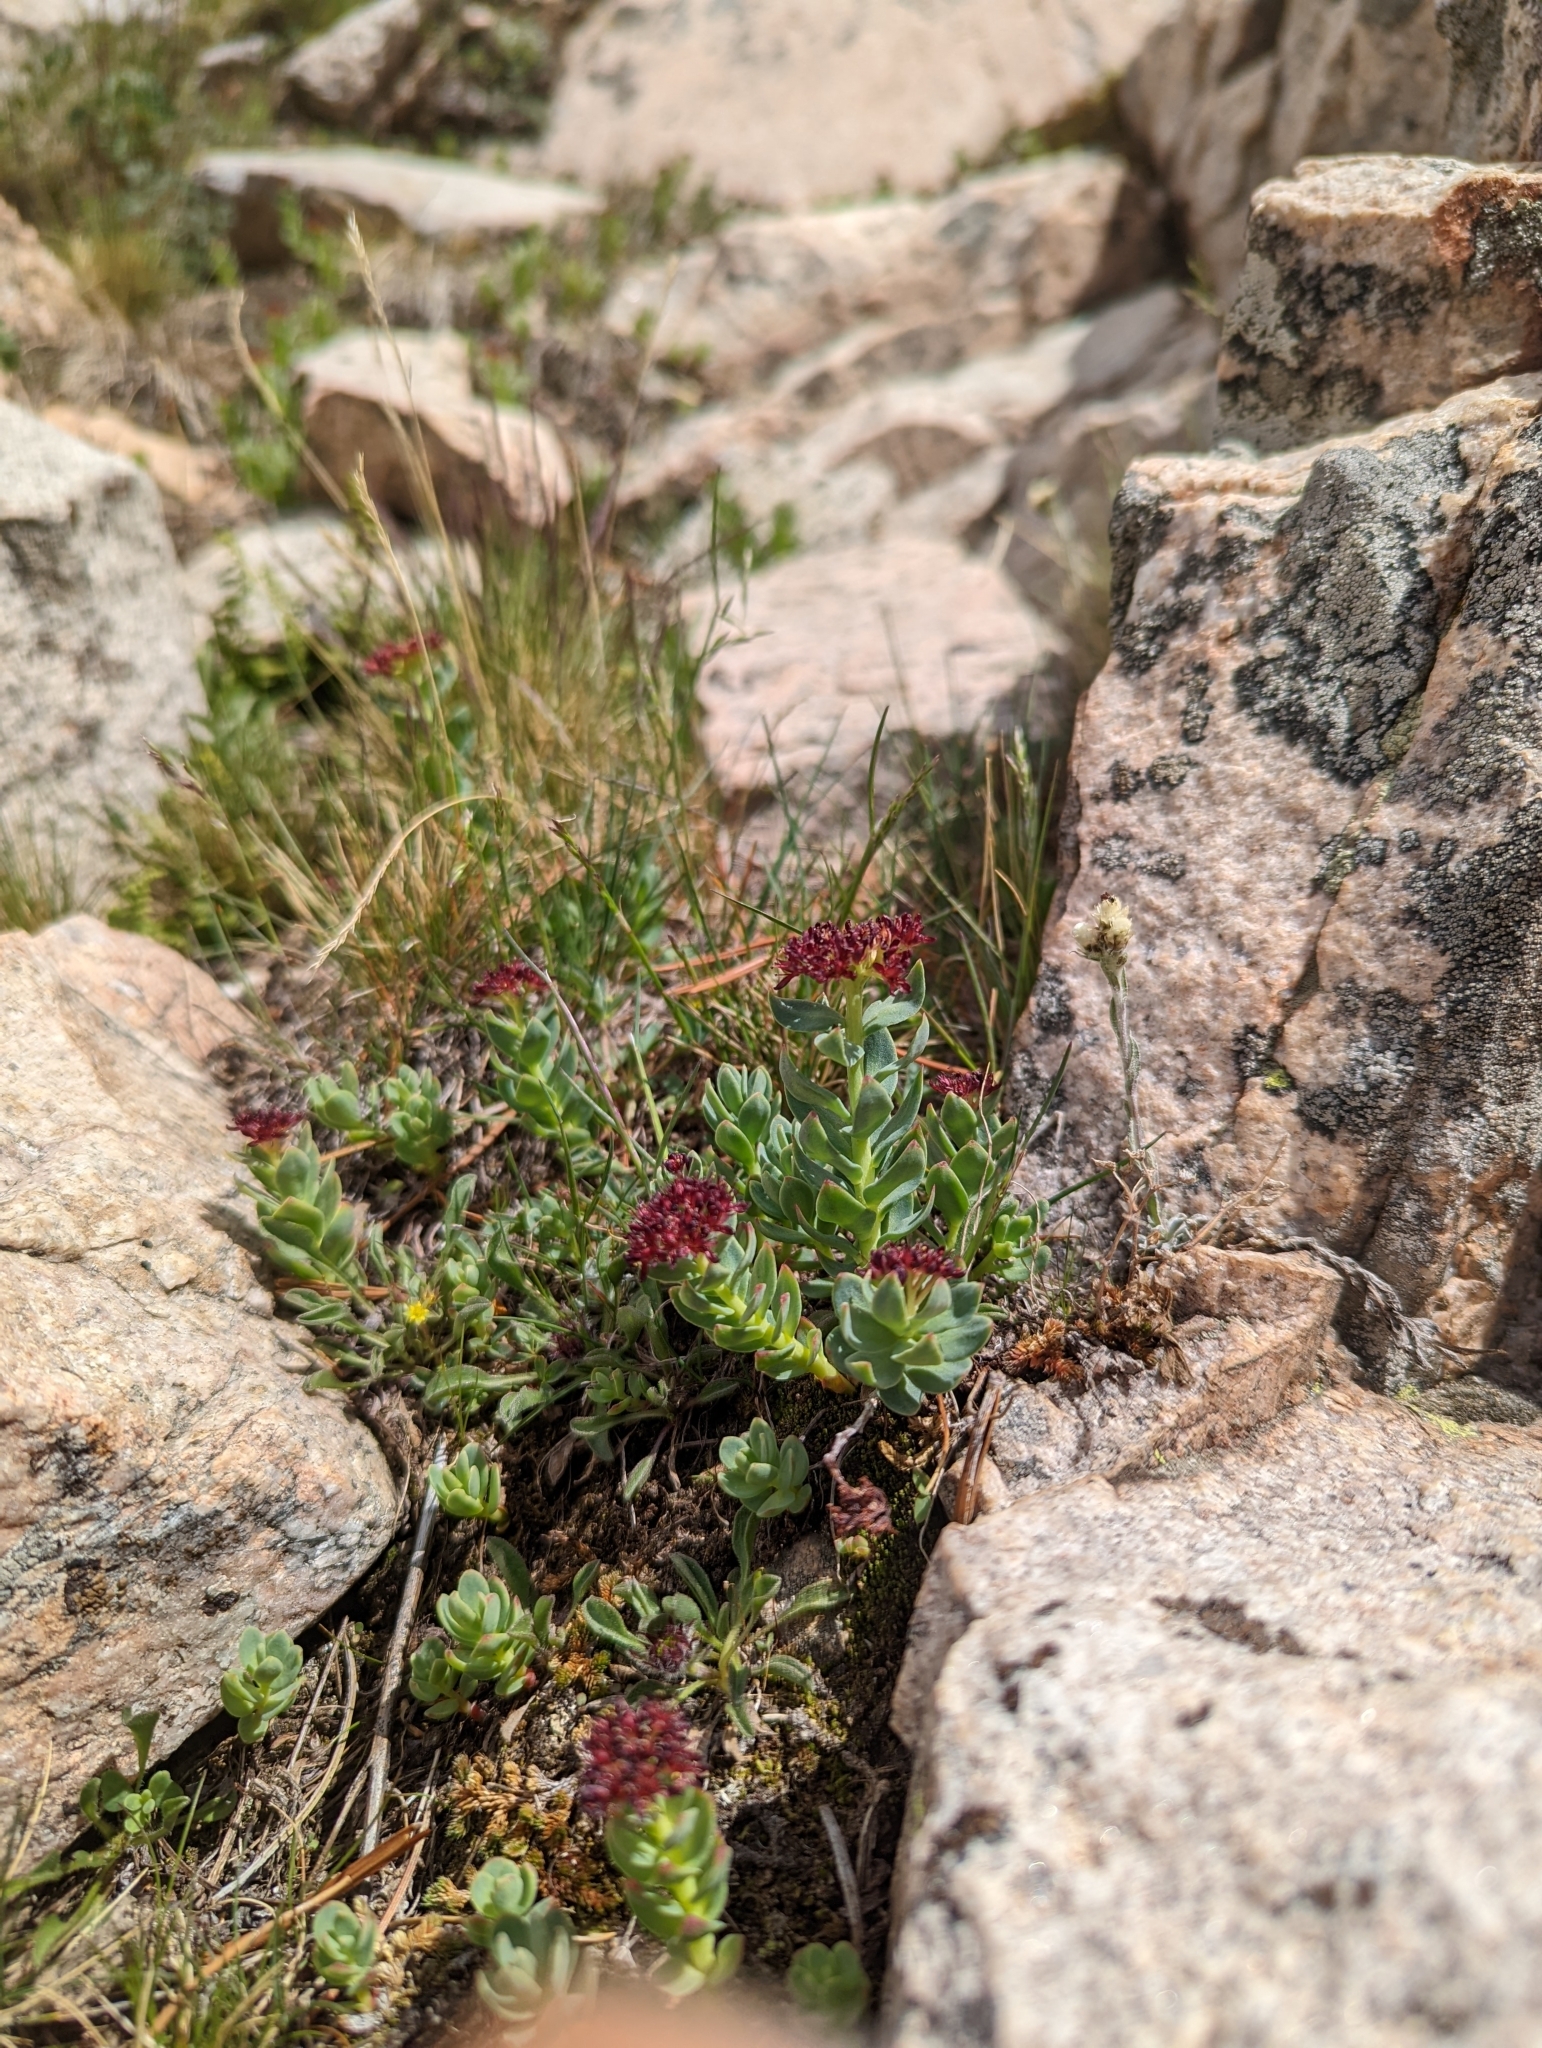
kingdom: Plantae
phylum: Tracheophyta
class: Magnoliopsida
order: Saxifragales
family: Crassulaceae
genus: Rhodiola
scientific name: Rhodiola integrifolia
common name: Western roseroot
